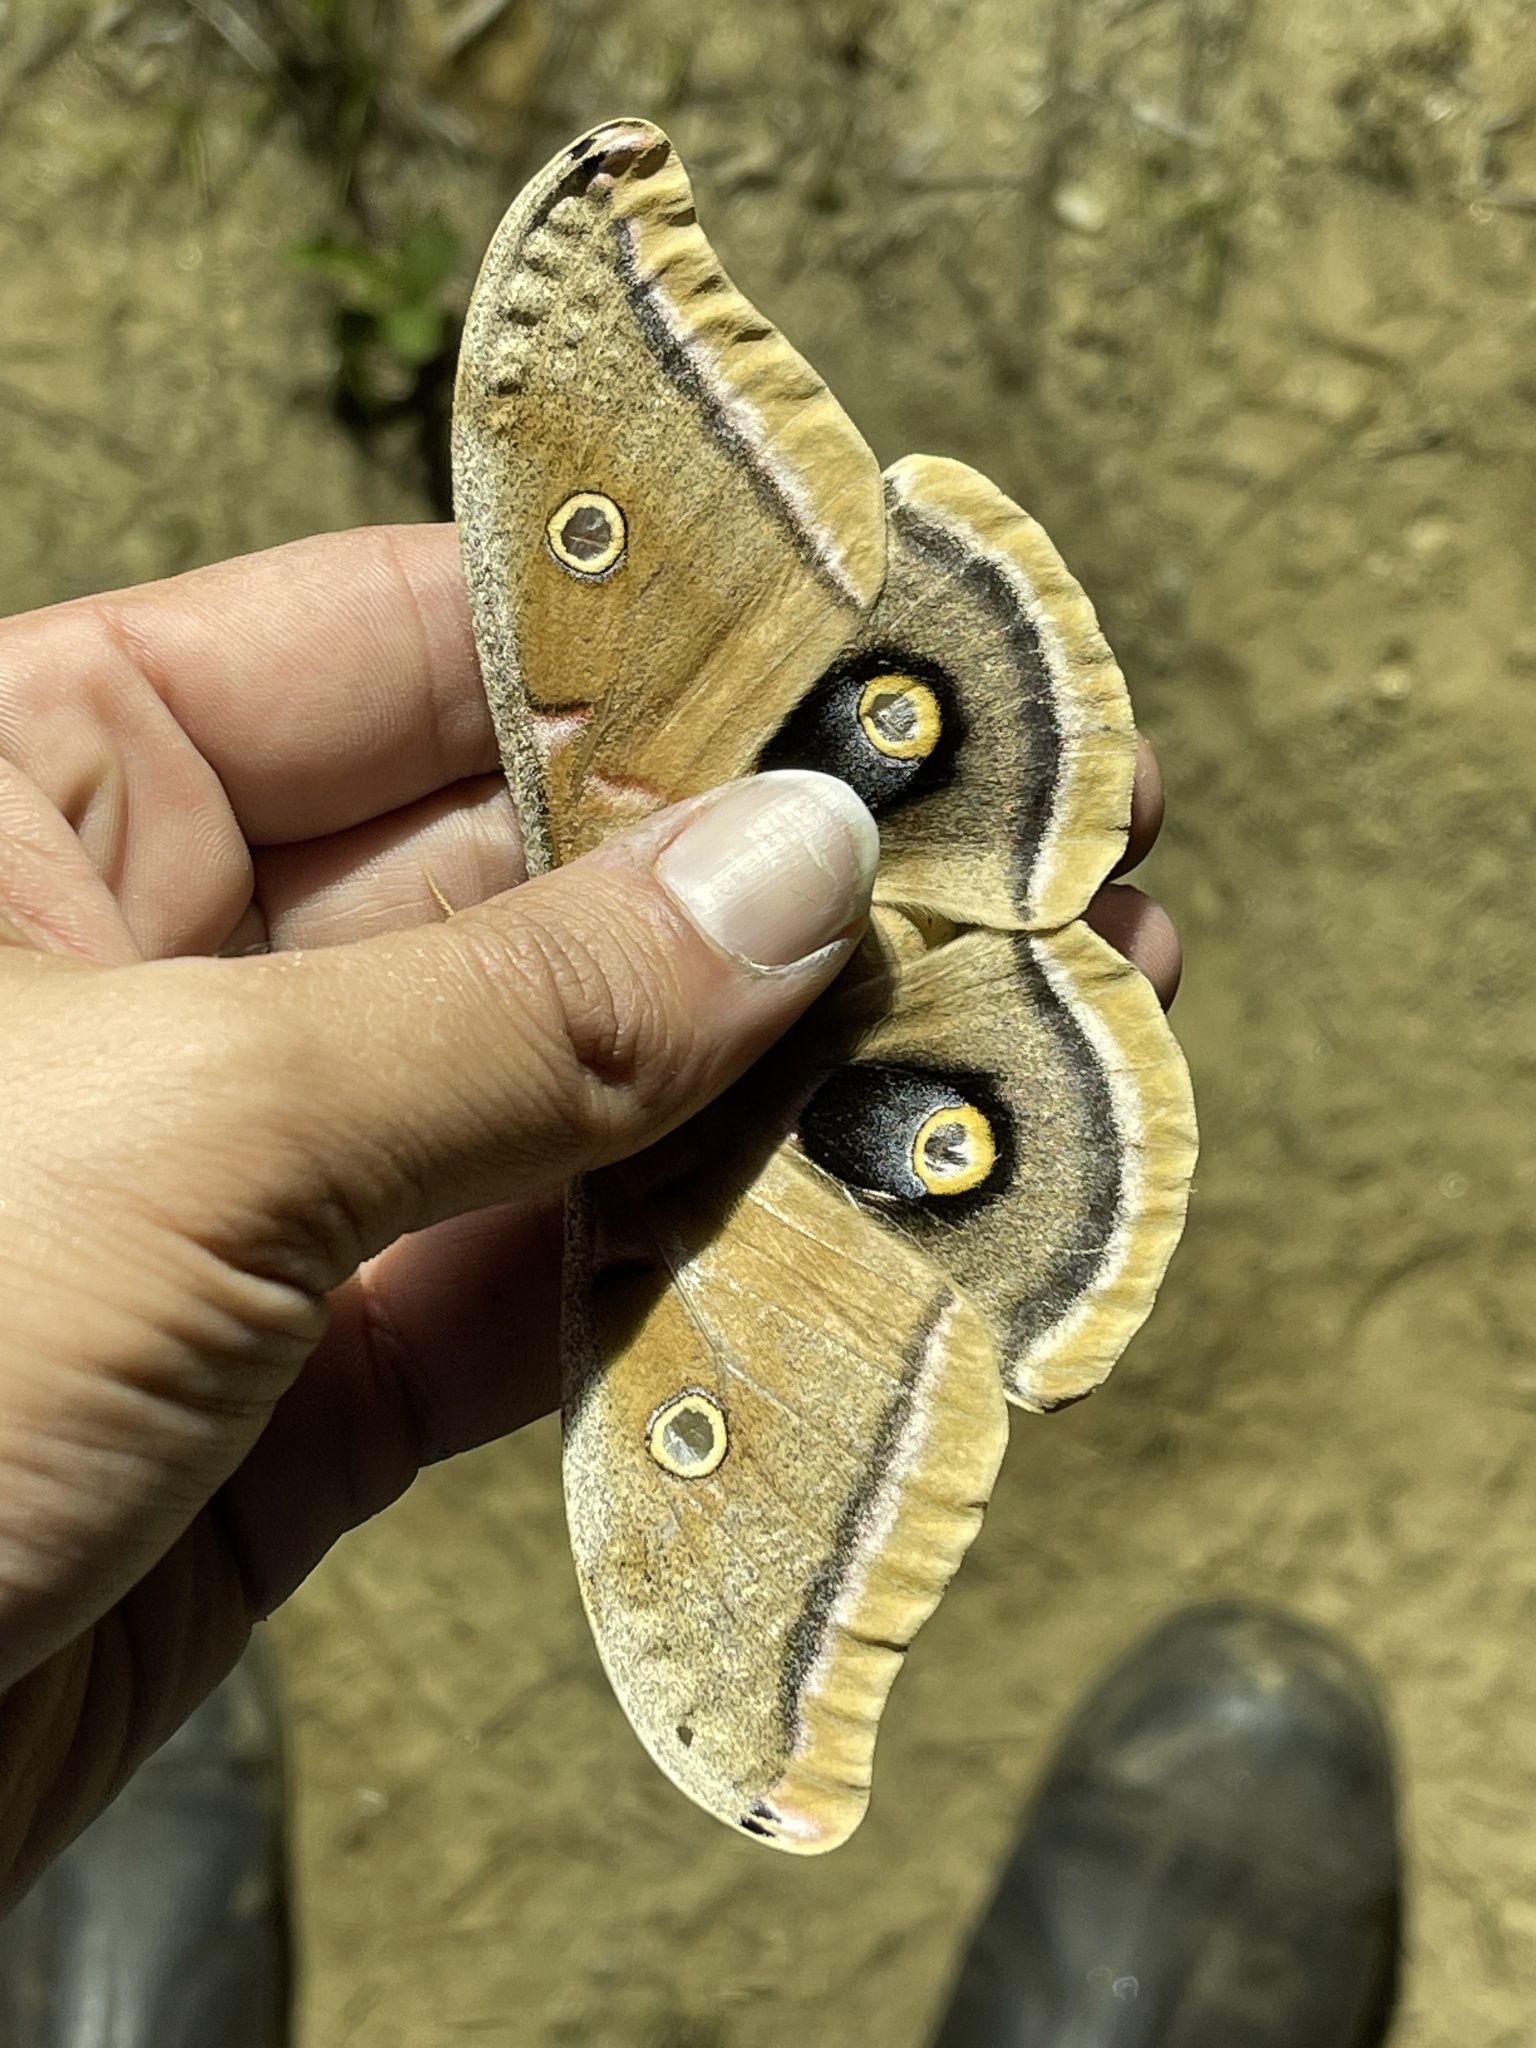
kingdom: Animalia
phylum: Arthropoda
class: Insecta
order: Lepidoptera
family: Saturniidae
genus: Antheraea
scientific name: Antheraea polyphemus
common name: Polyphemus moth
